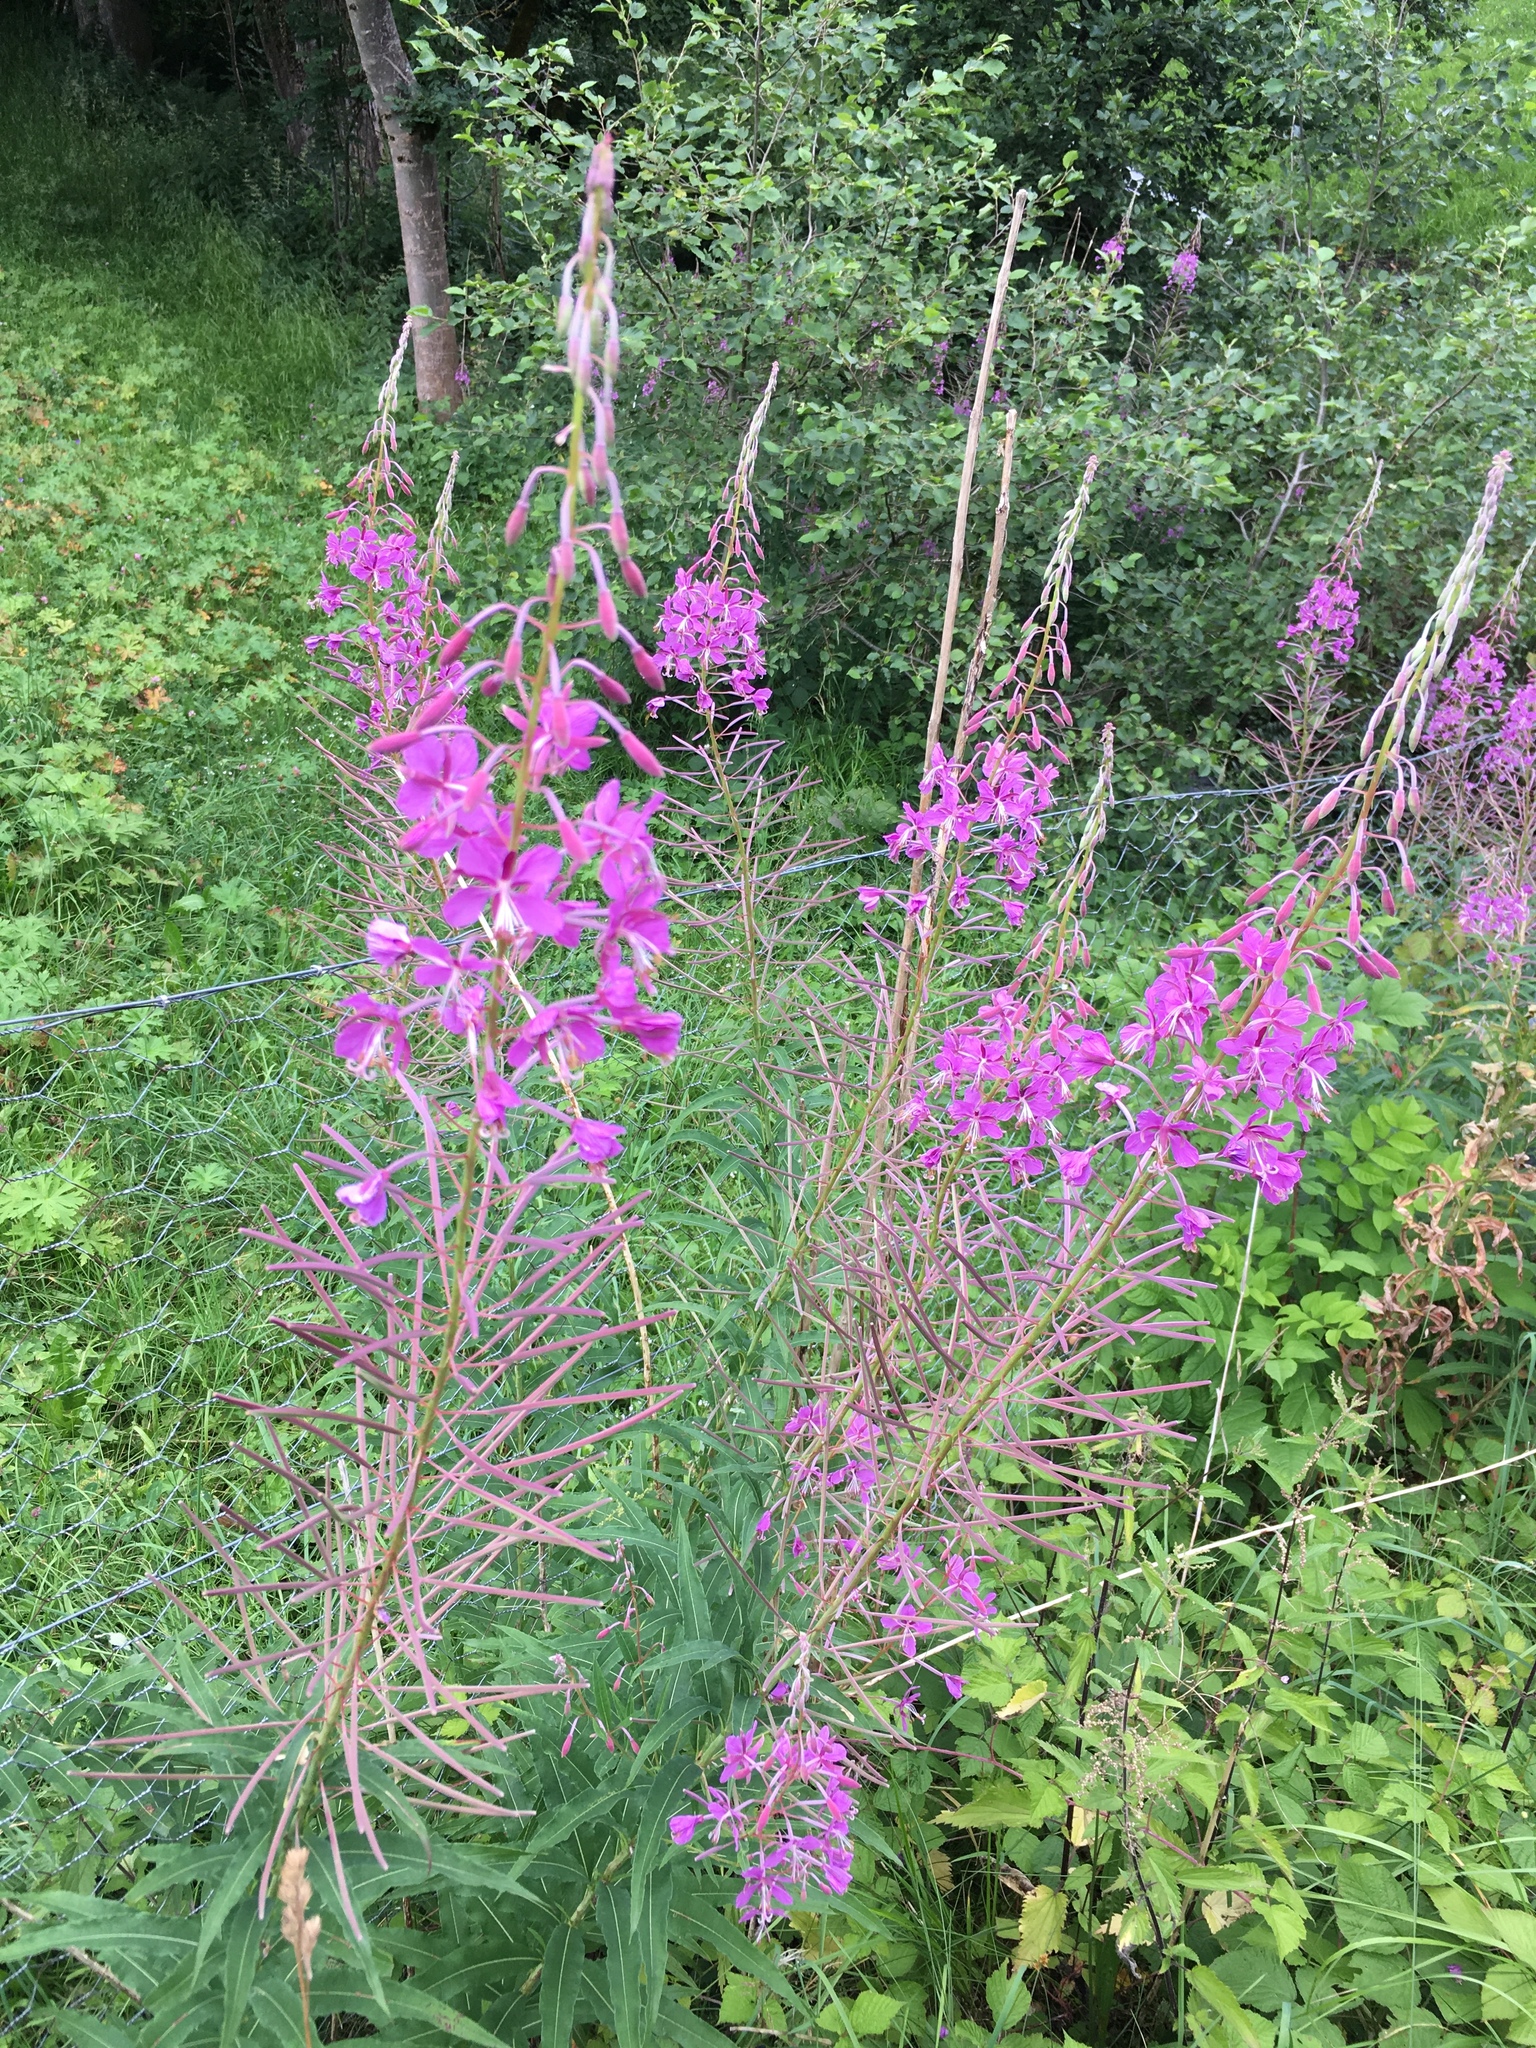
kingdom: Plantae
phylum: Tracheophyta
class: Magnoliopsida
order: Myrtales
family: Onagraceae
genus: Chamaenerion
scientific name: Chamaenerion angustifolium
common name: Fireweed
